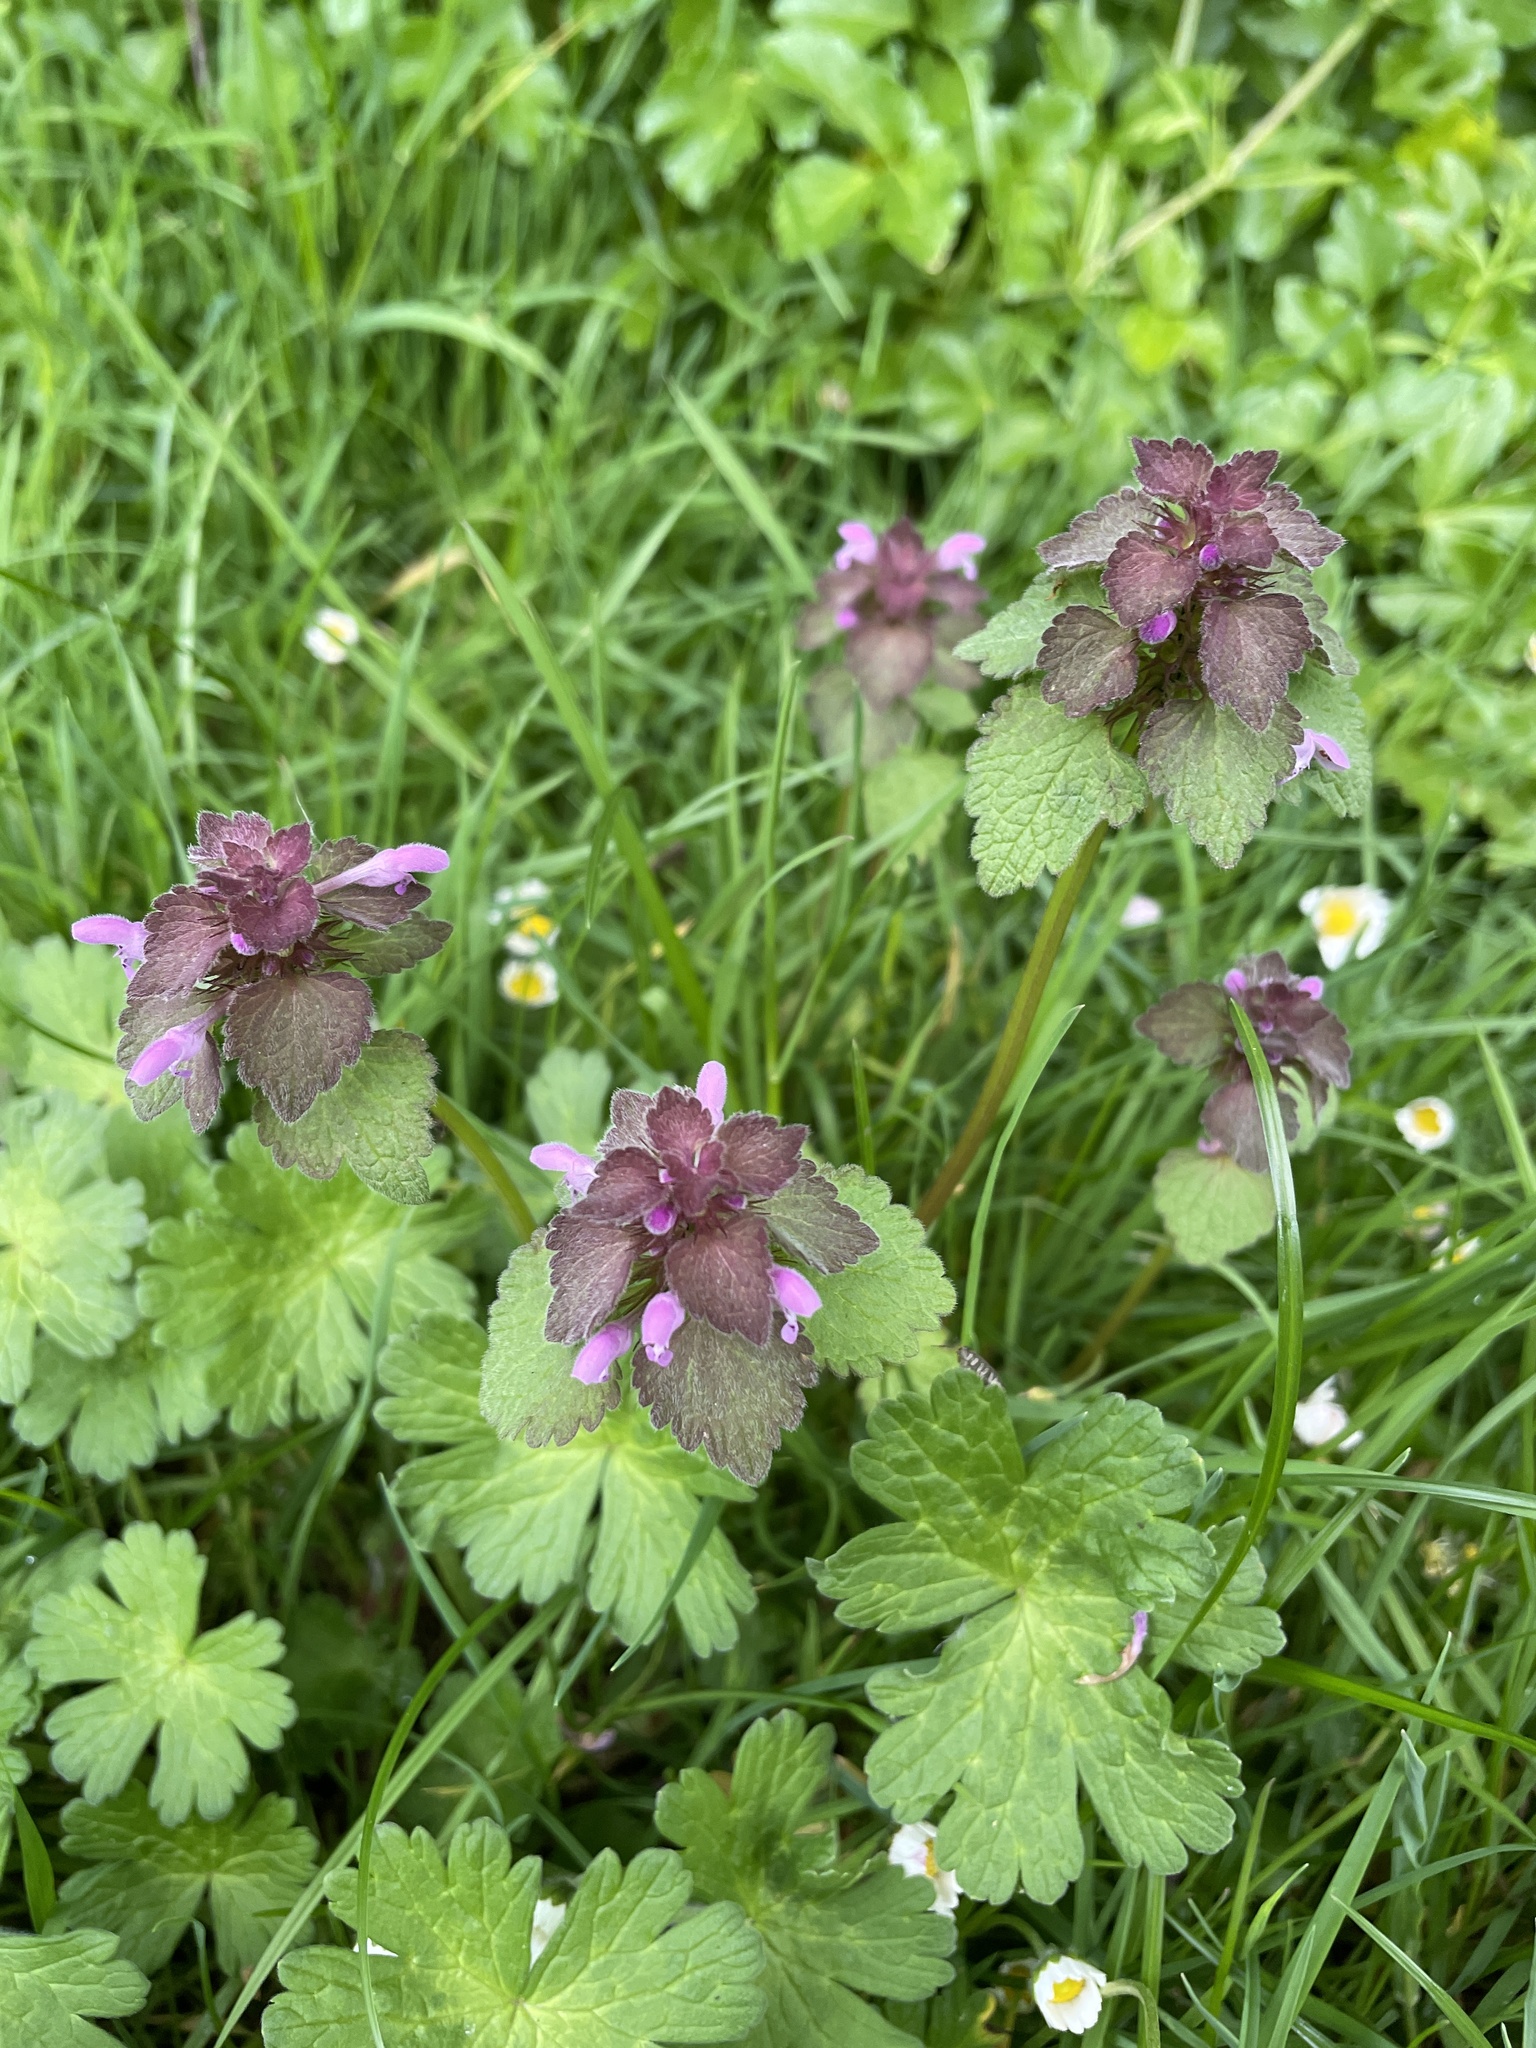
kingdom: Plantae
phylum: Tracheophyta
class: Magnoliopsida
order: Lamiales
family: Lamiaceae
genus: Lamium
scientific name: Lamium purpureum
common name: Red dead-nettle
